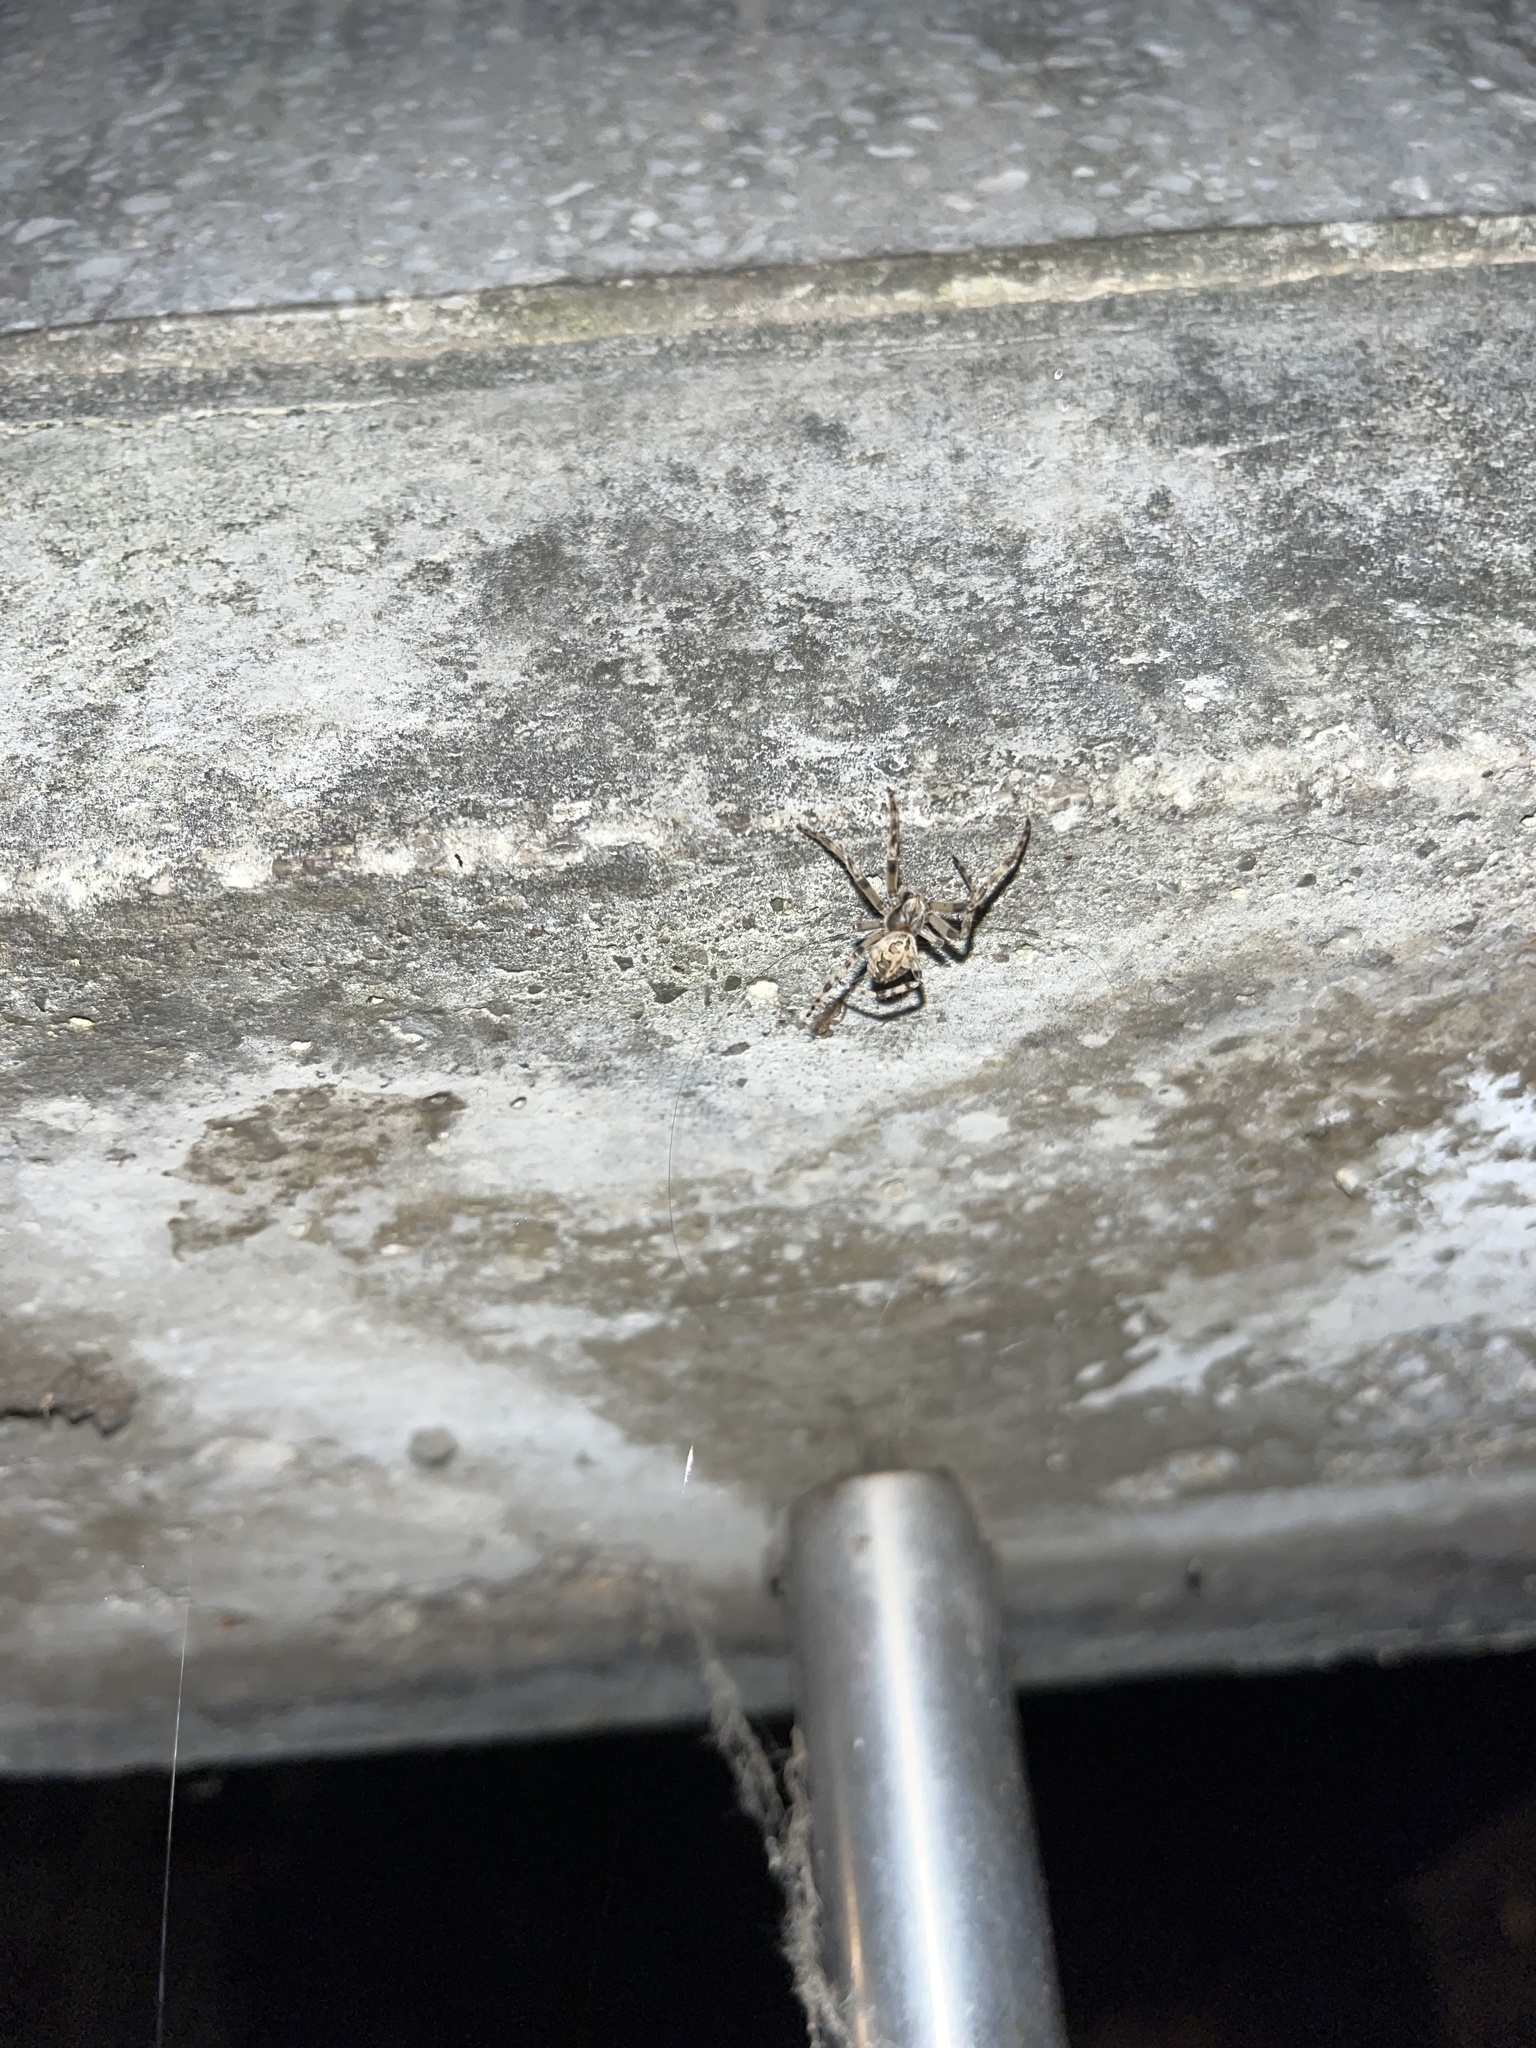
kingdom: Animalia
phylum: Arthropoda
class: Arachnida
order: Araneae
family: Araneidae
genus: Larinioides
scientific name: Larinioides sclopetarius
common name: Bridge orbweaver
